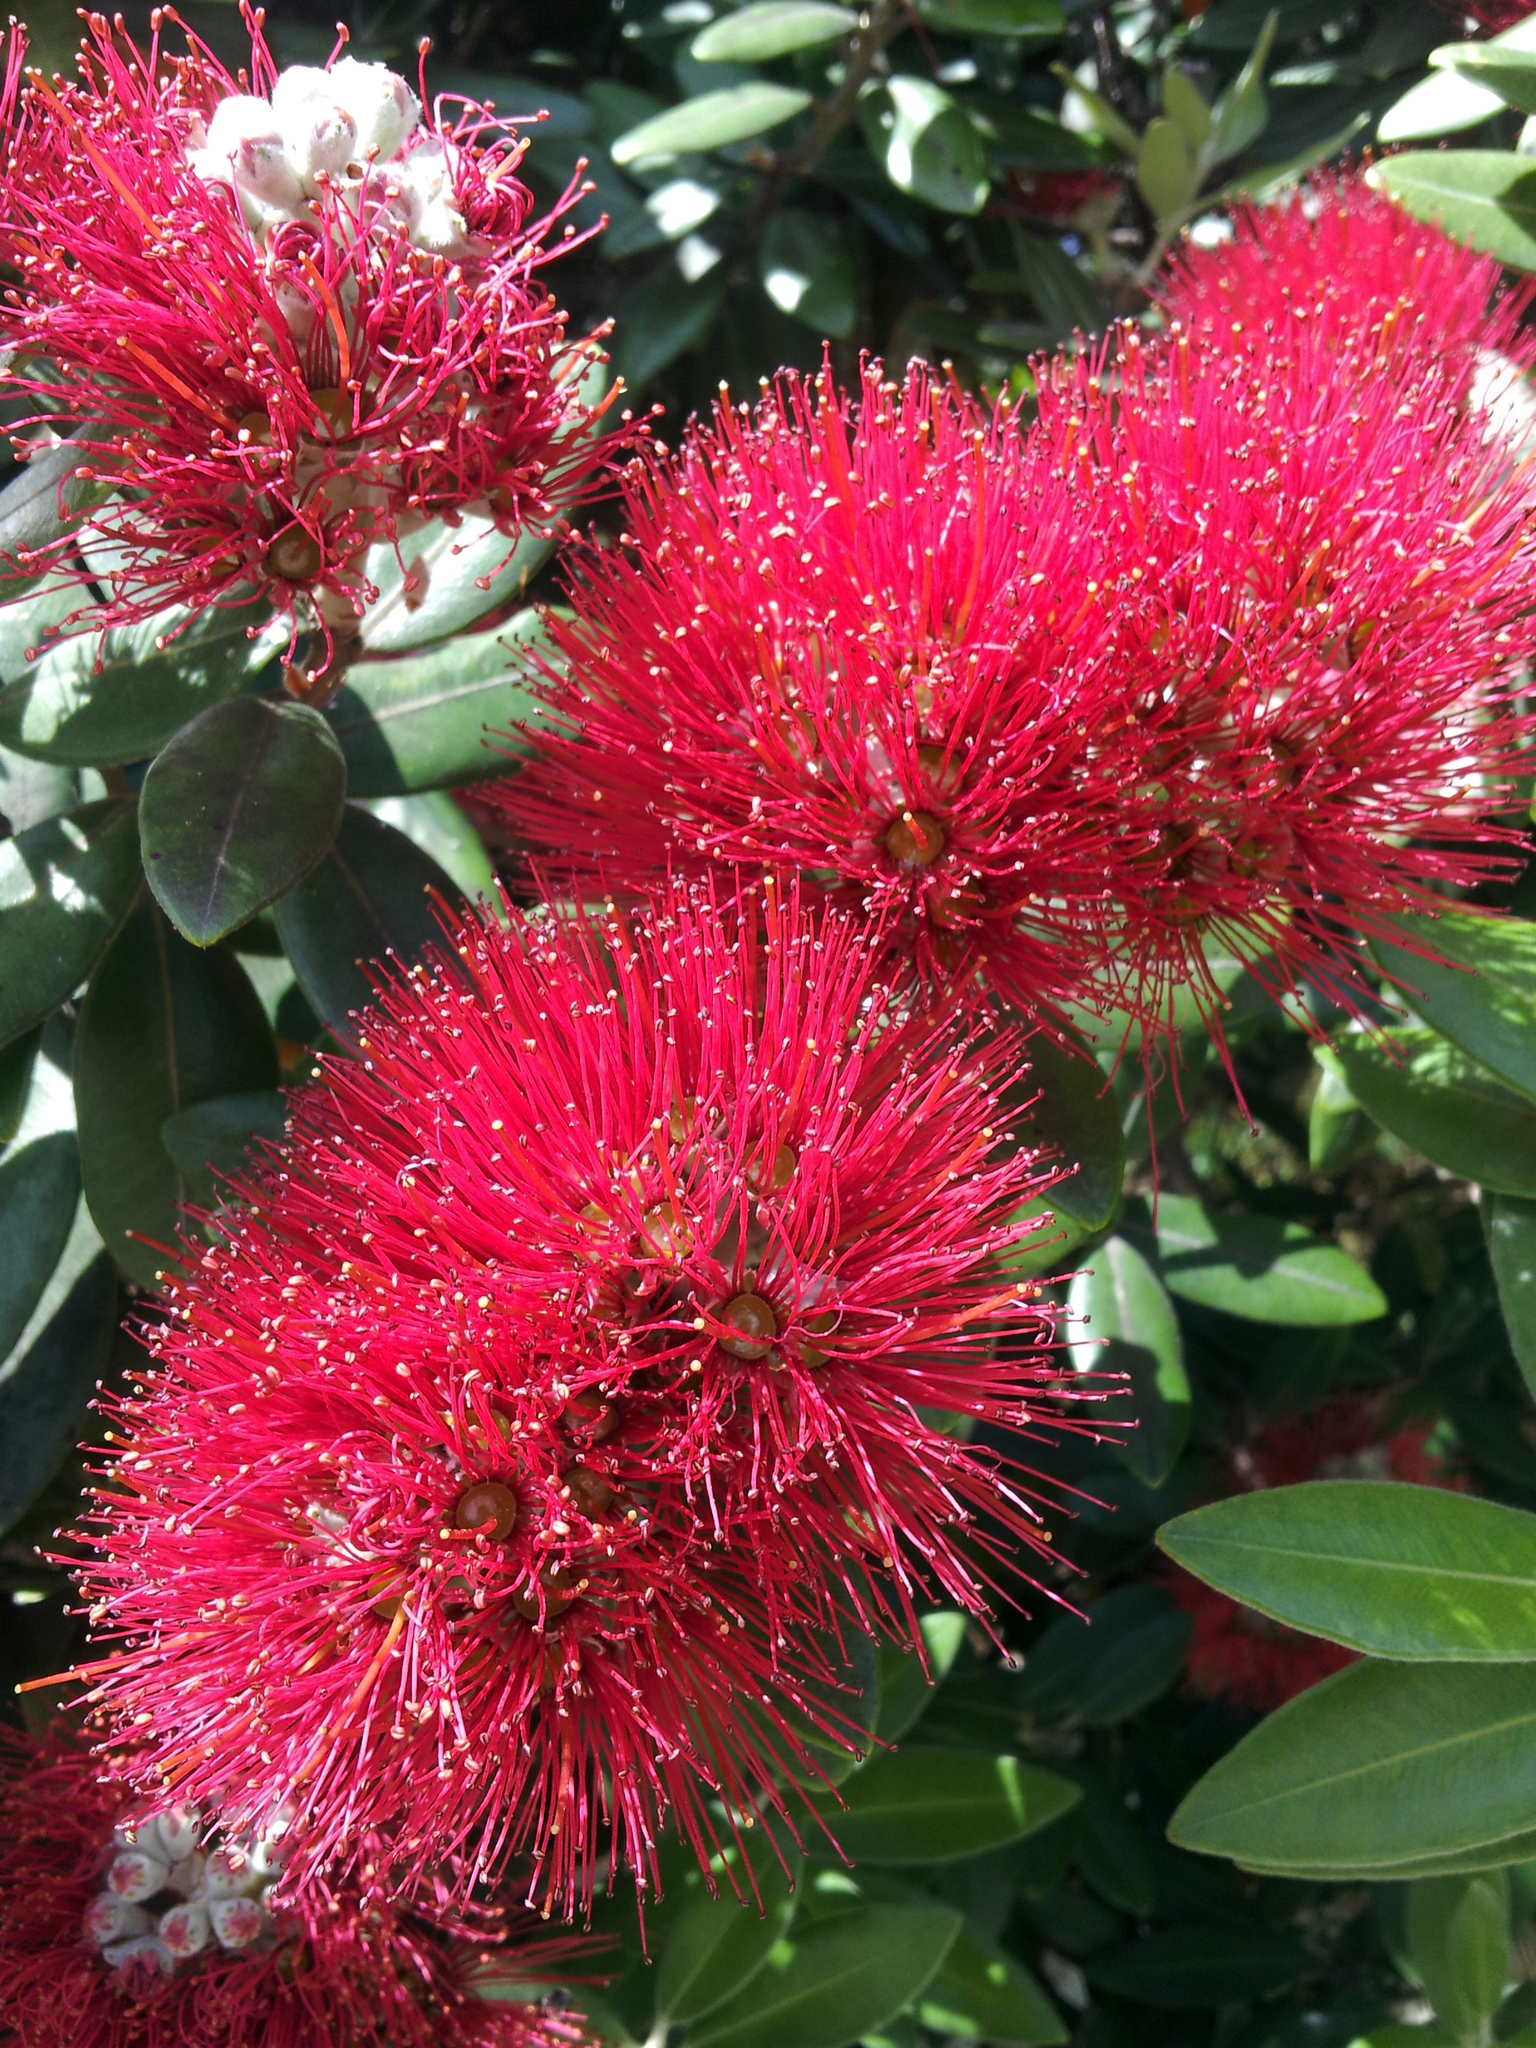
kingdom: Plantae
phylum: Tracheophyta
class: Magnoliopsida
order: Myrtales
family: Myrtaceae
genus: Metrosideros
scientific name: Metrosideros excelsa
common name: New zealand christmastree
